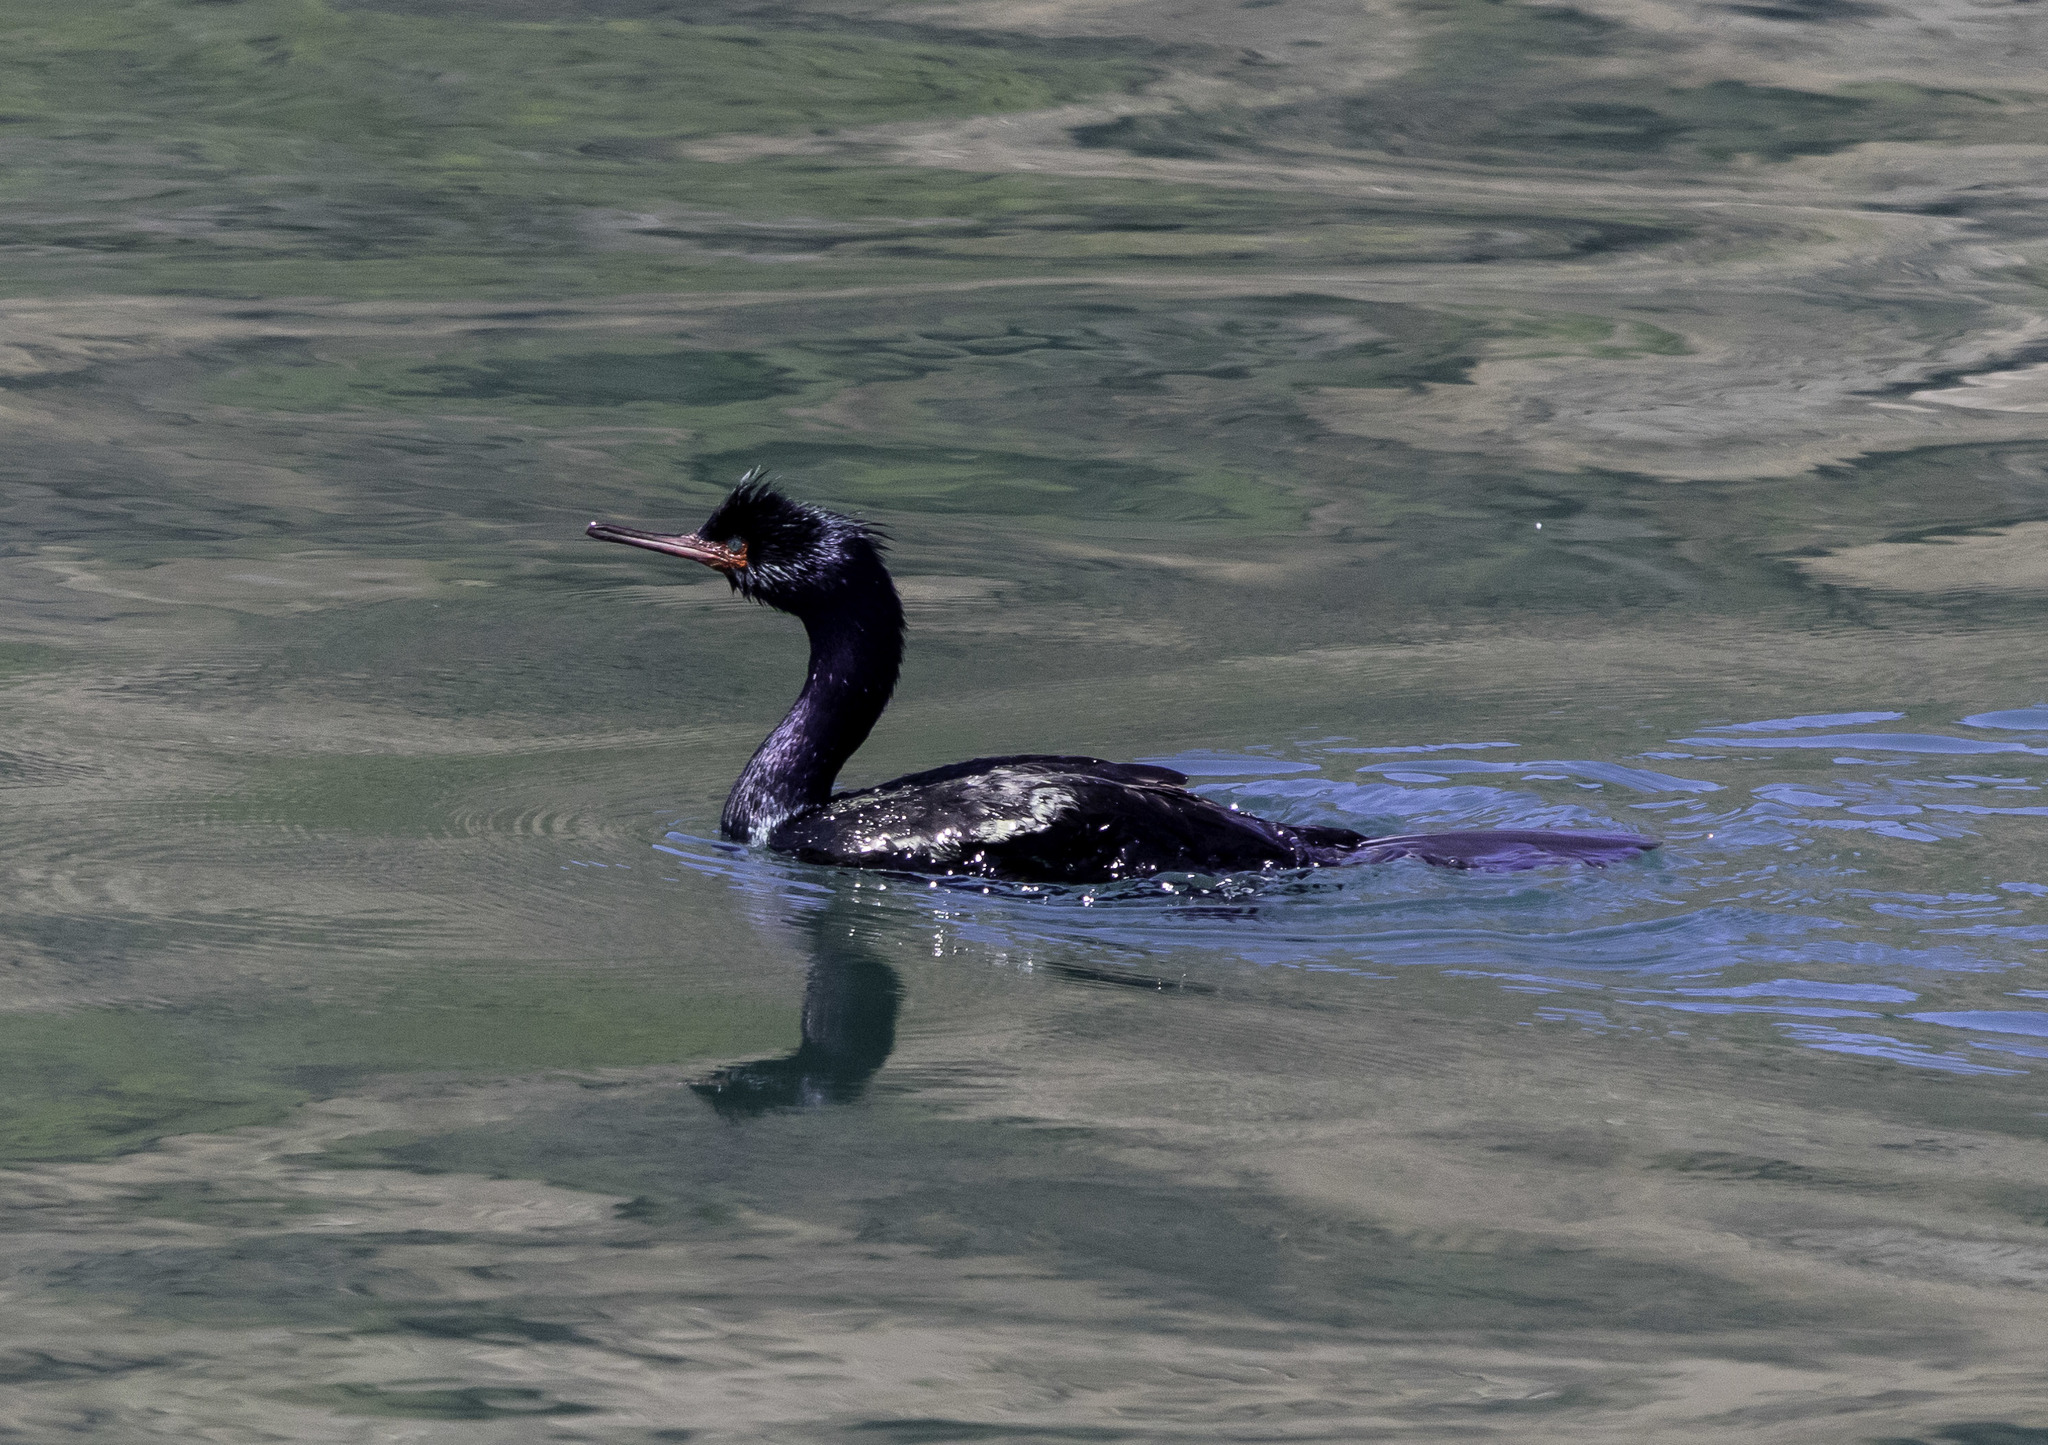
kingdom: Animalia
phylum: Chordata
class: Aves
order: Suliformes
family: Phalacrocoracidae
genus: Phalacrocorax
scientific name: Phalacrocorax pelagicus
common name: Pelagic cormorant
